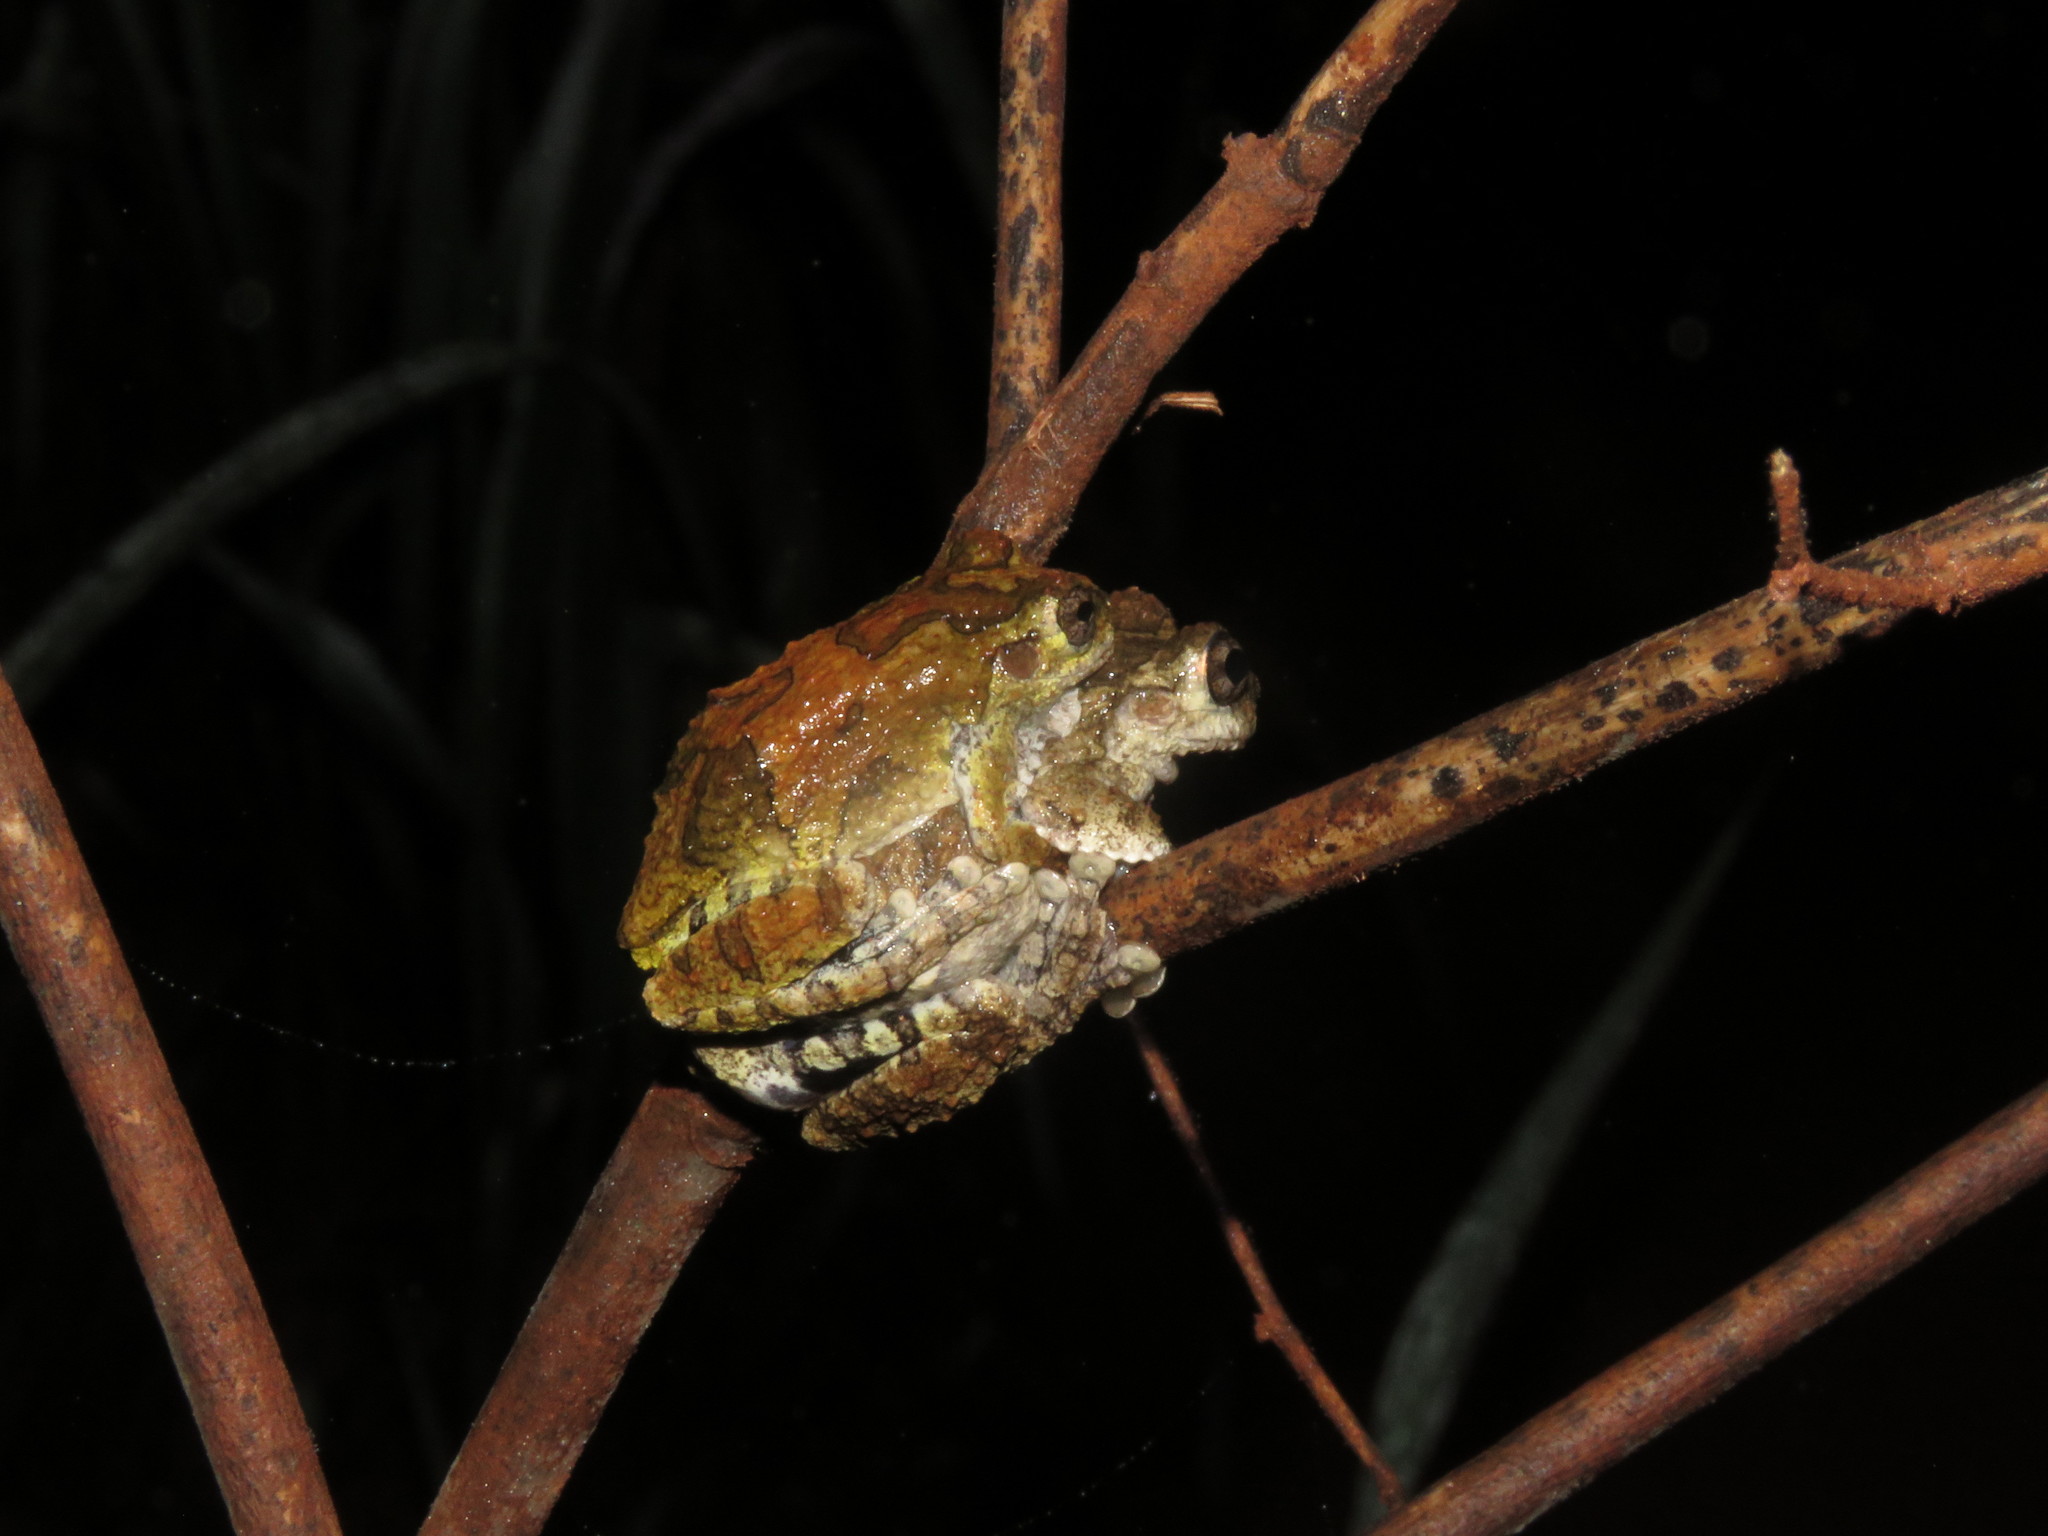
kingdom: Animalia
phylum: Chordata
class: Amphibia
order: Anura
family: Hylidae
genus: Dendropsophus
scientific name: Dendropsophus acreanus
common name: Acre treefrog
